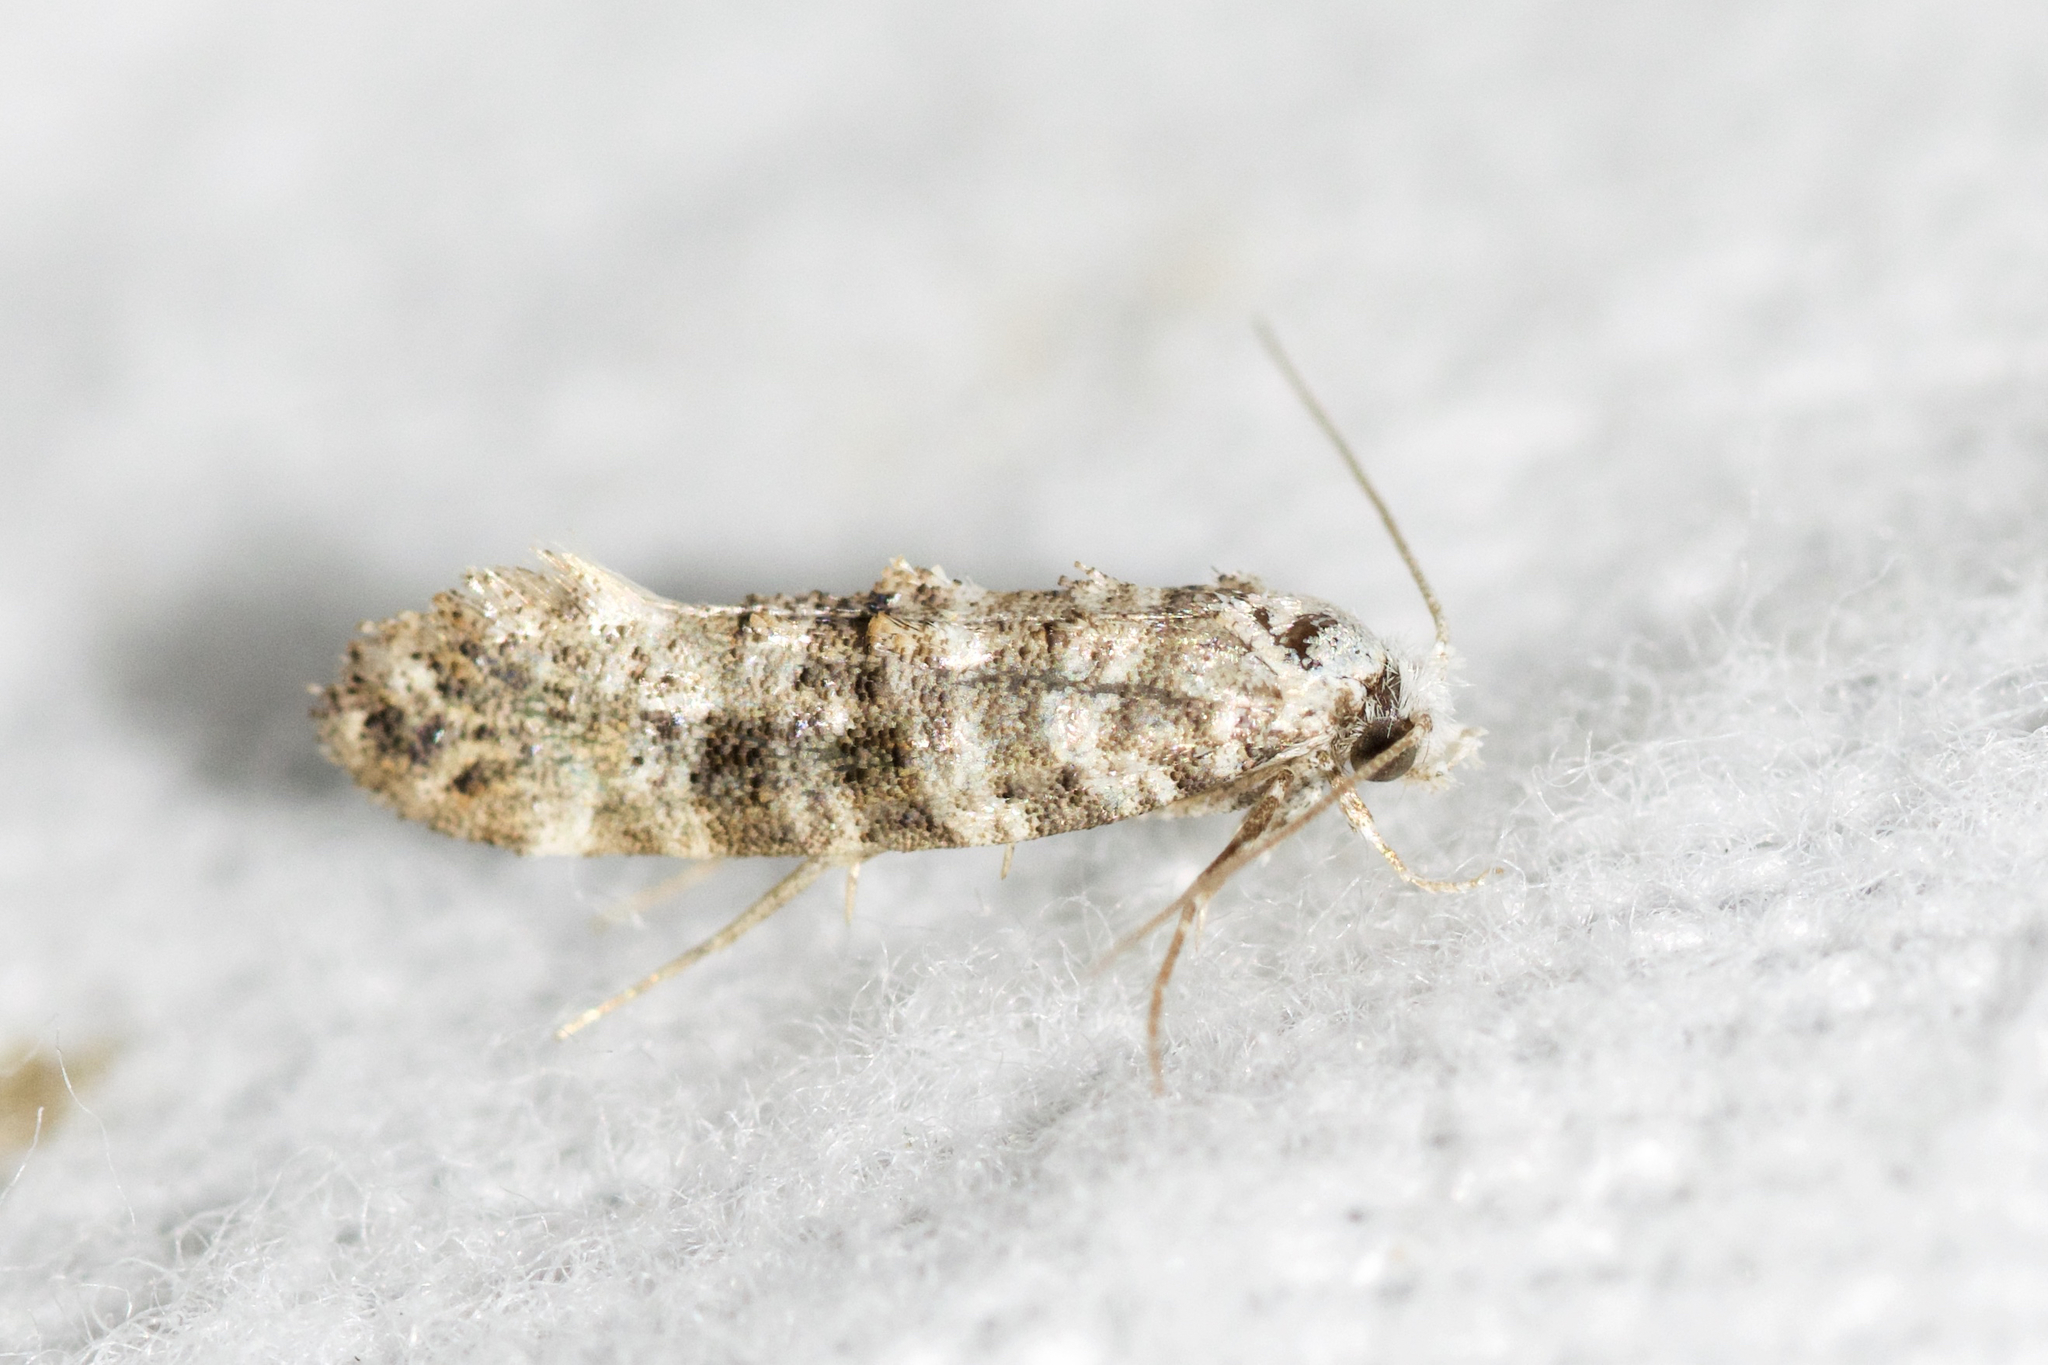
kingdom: Animalia
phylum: Arthropoda
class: Insecta
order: Lepidoptera
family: Tineidae
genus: Xylesthia
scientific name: Xylesthia pruniramiella
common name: Clemens' bark moth
